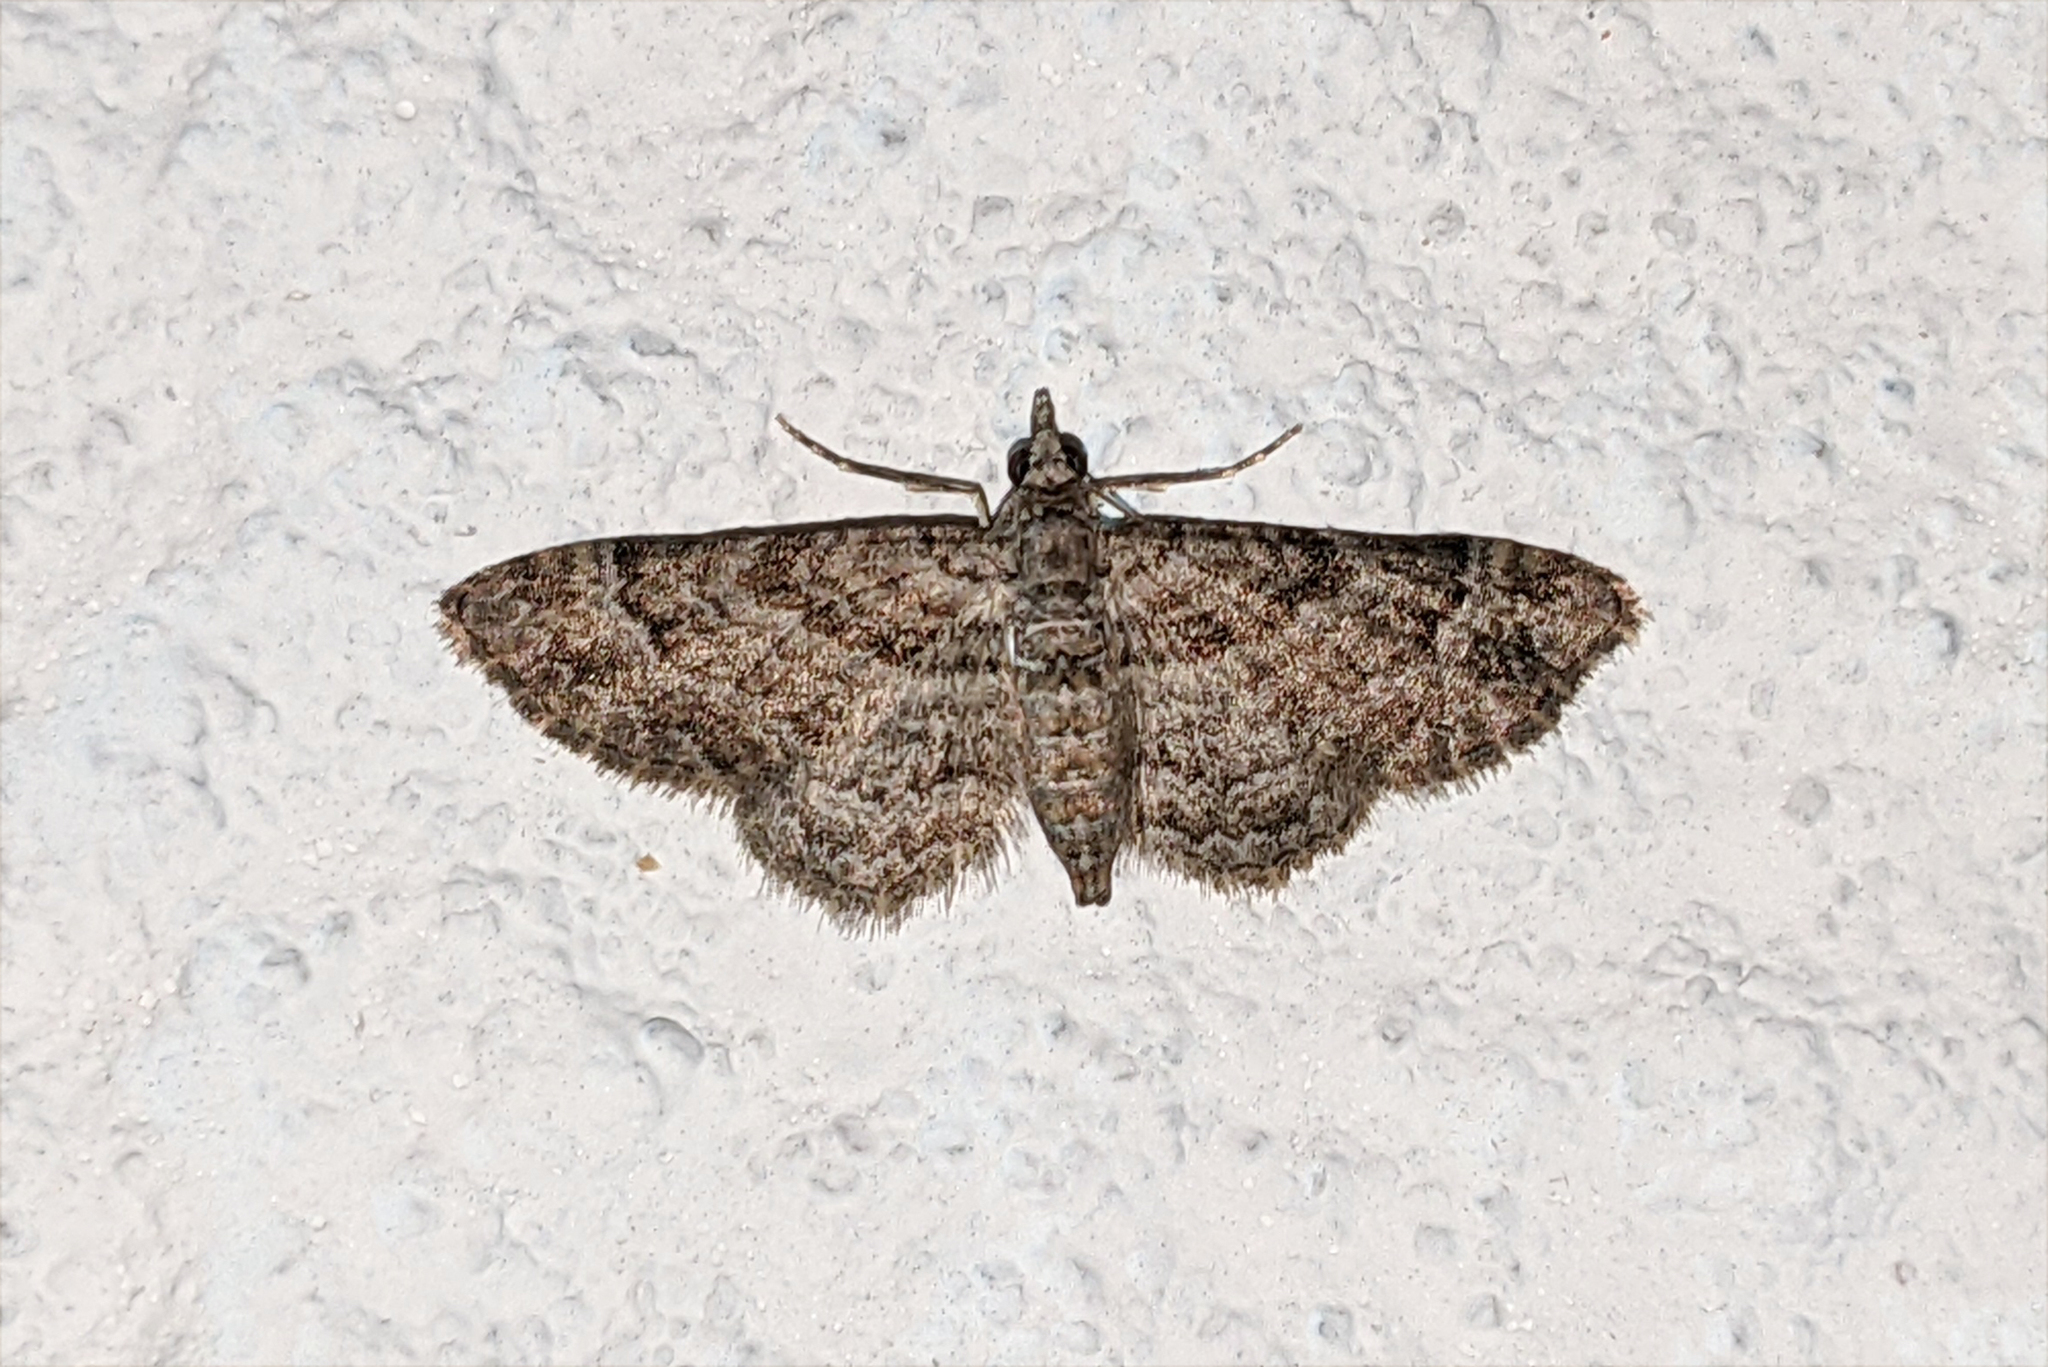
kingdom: Animalia
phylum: Arthropoda
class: Insecta
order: Lepidoptera
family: Geometridae
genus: Gymnoscelis
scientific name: Gymnoscelis rufifasciata
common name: Double-striped pug
